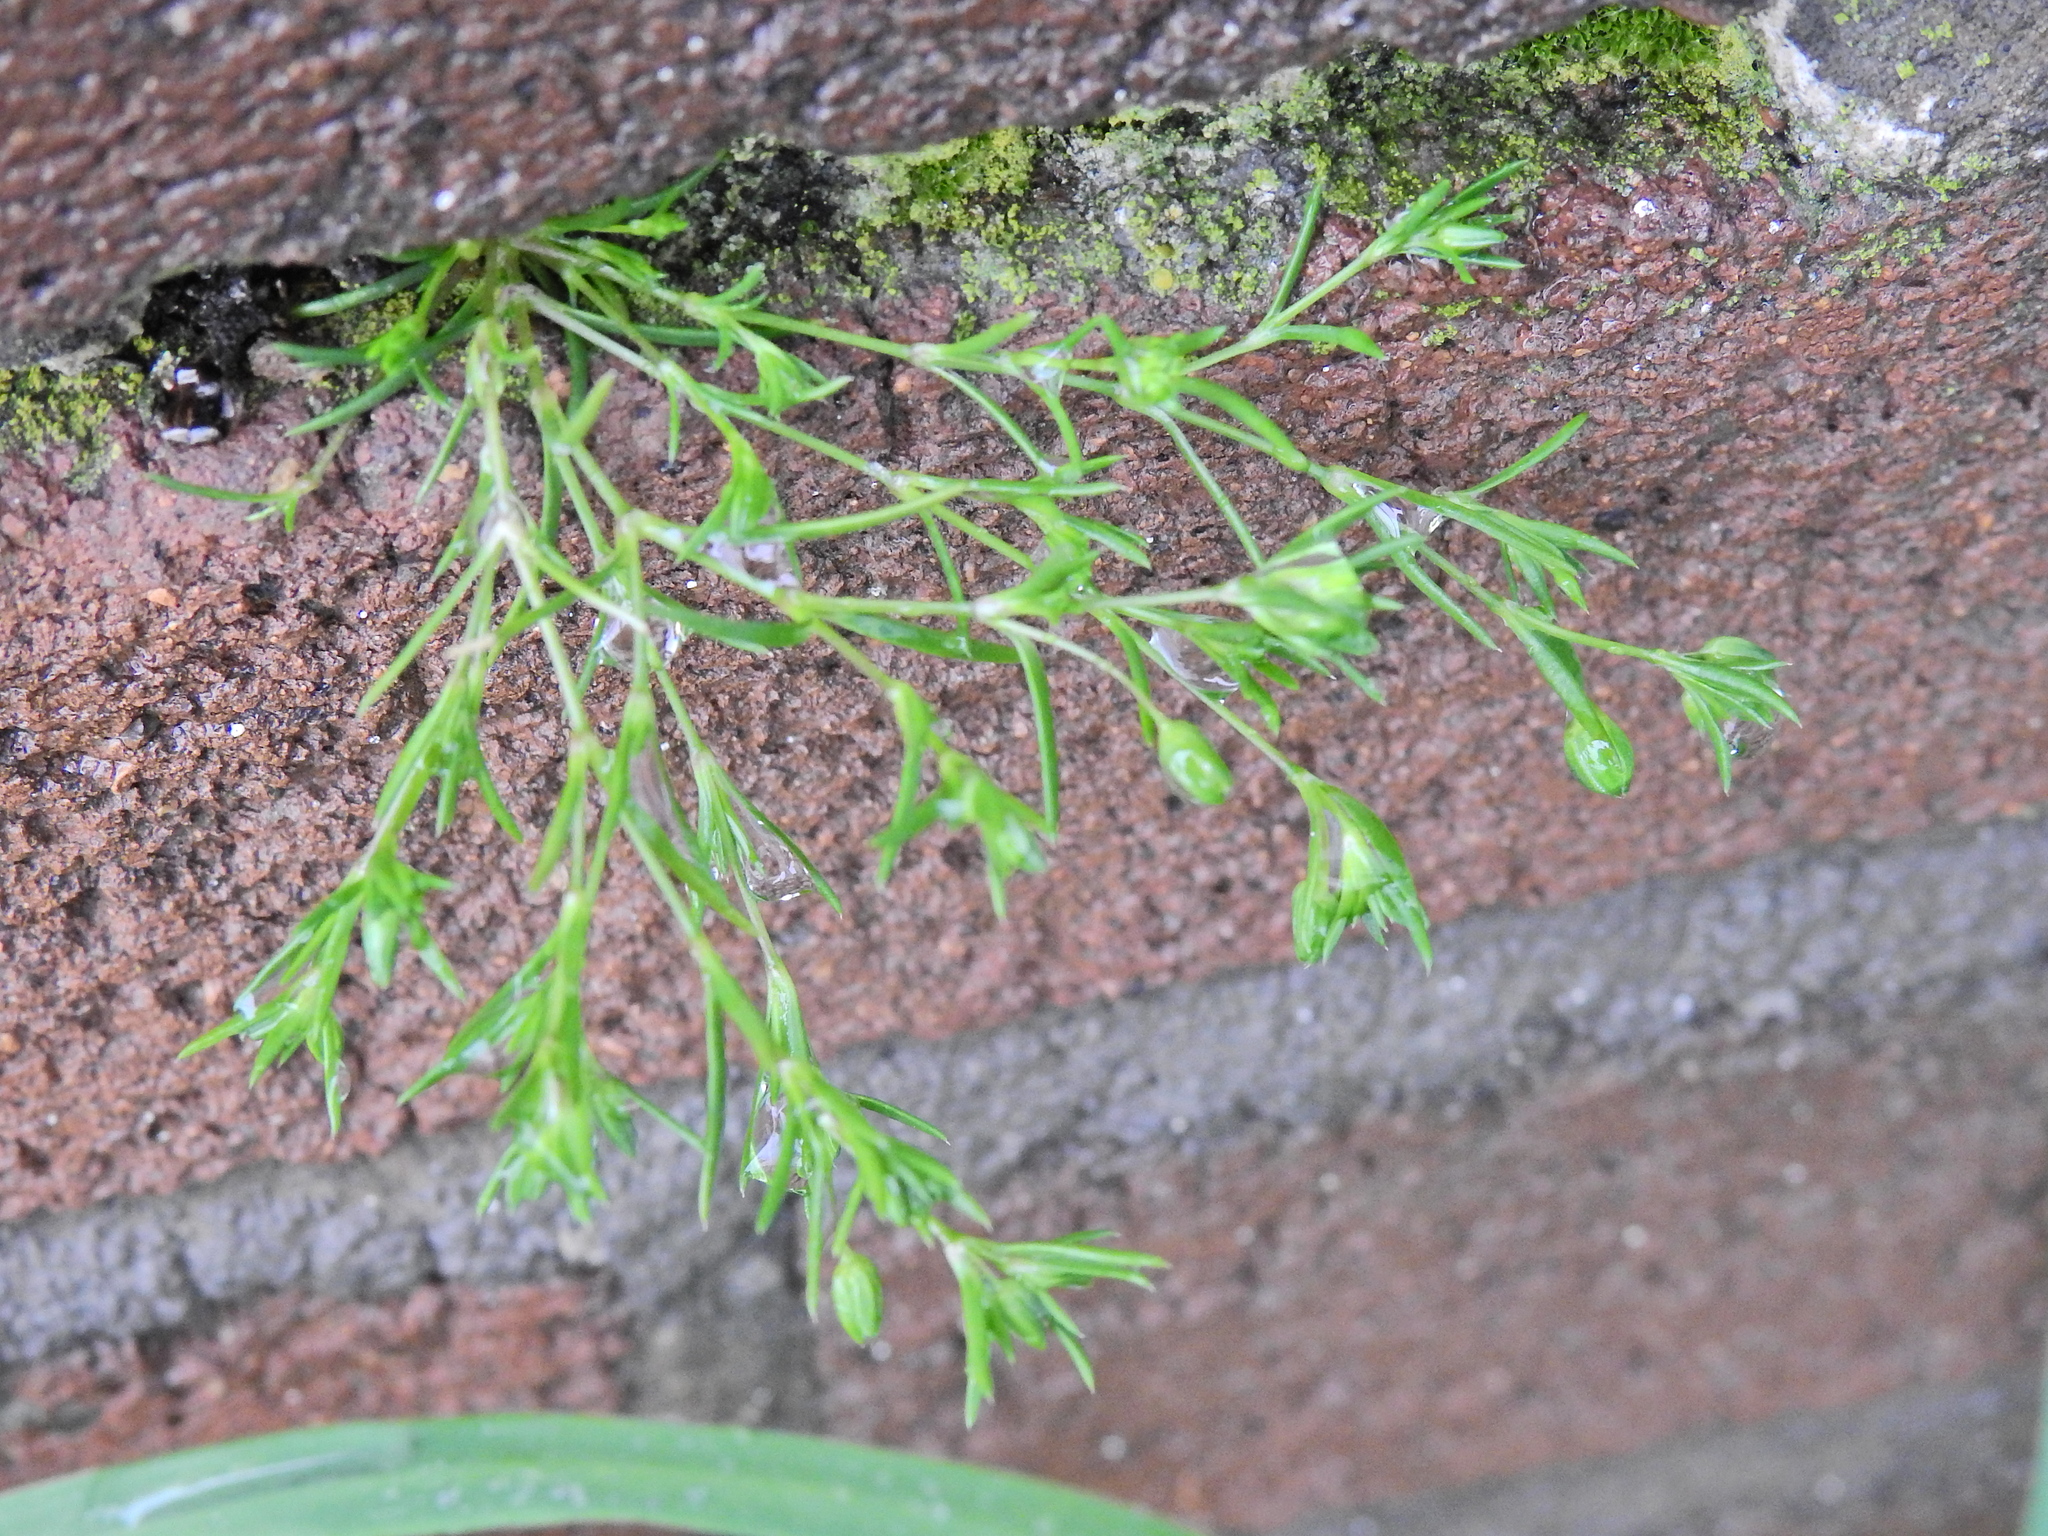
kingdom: Plantae
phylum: Tracheophyta
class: Magnoliopsida
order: Caryophyllales
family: Caryophyllaceae
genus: Sagina
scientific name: Sagina procumbens
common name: Procumbent pearlwort
